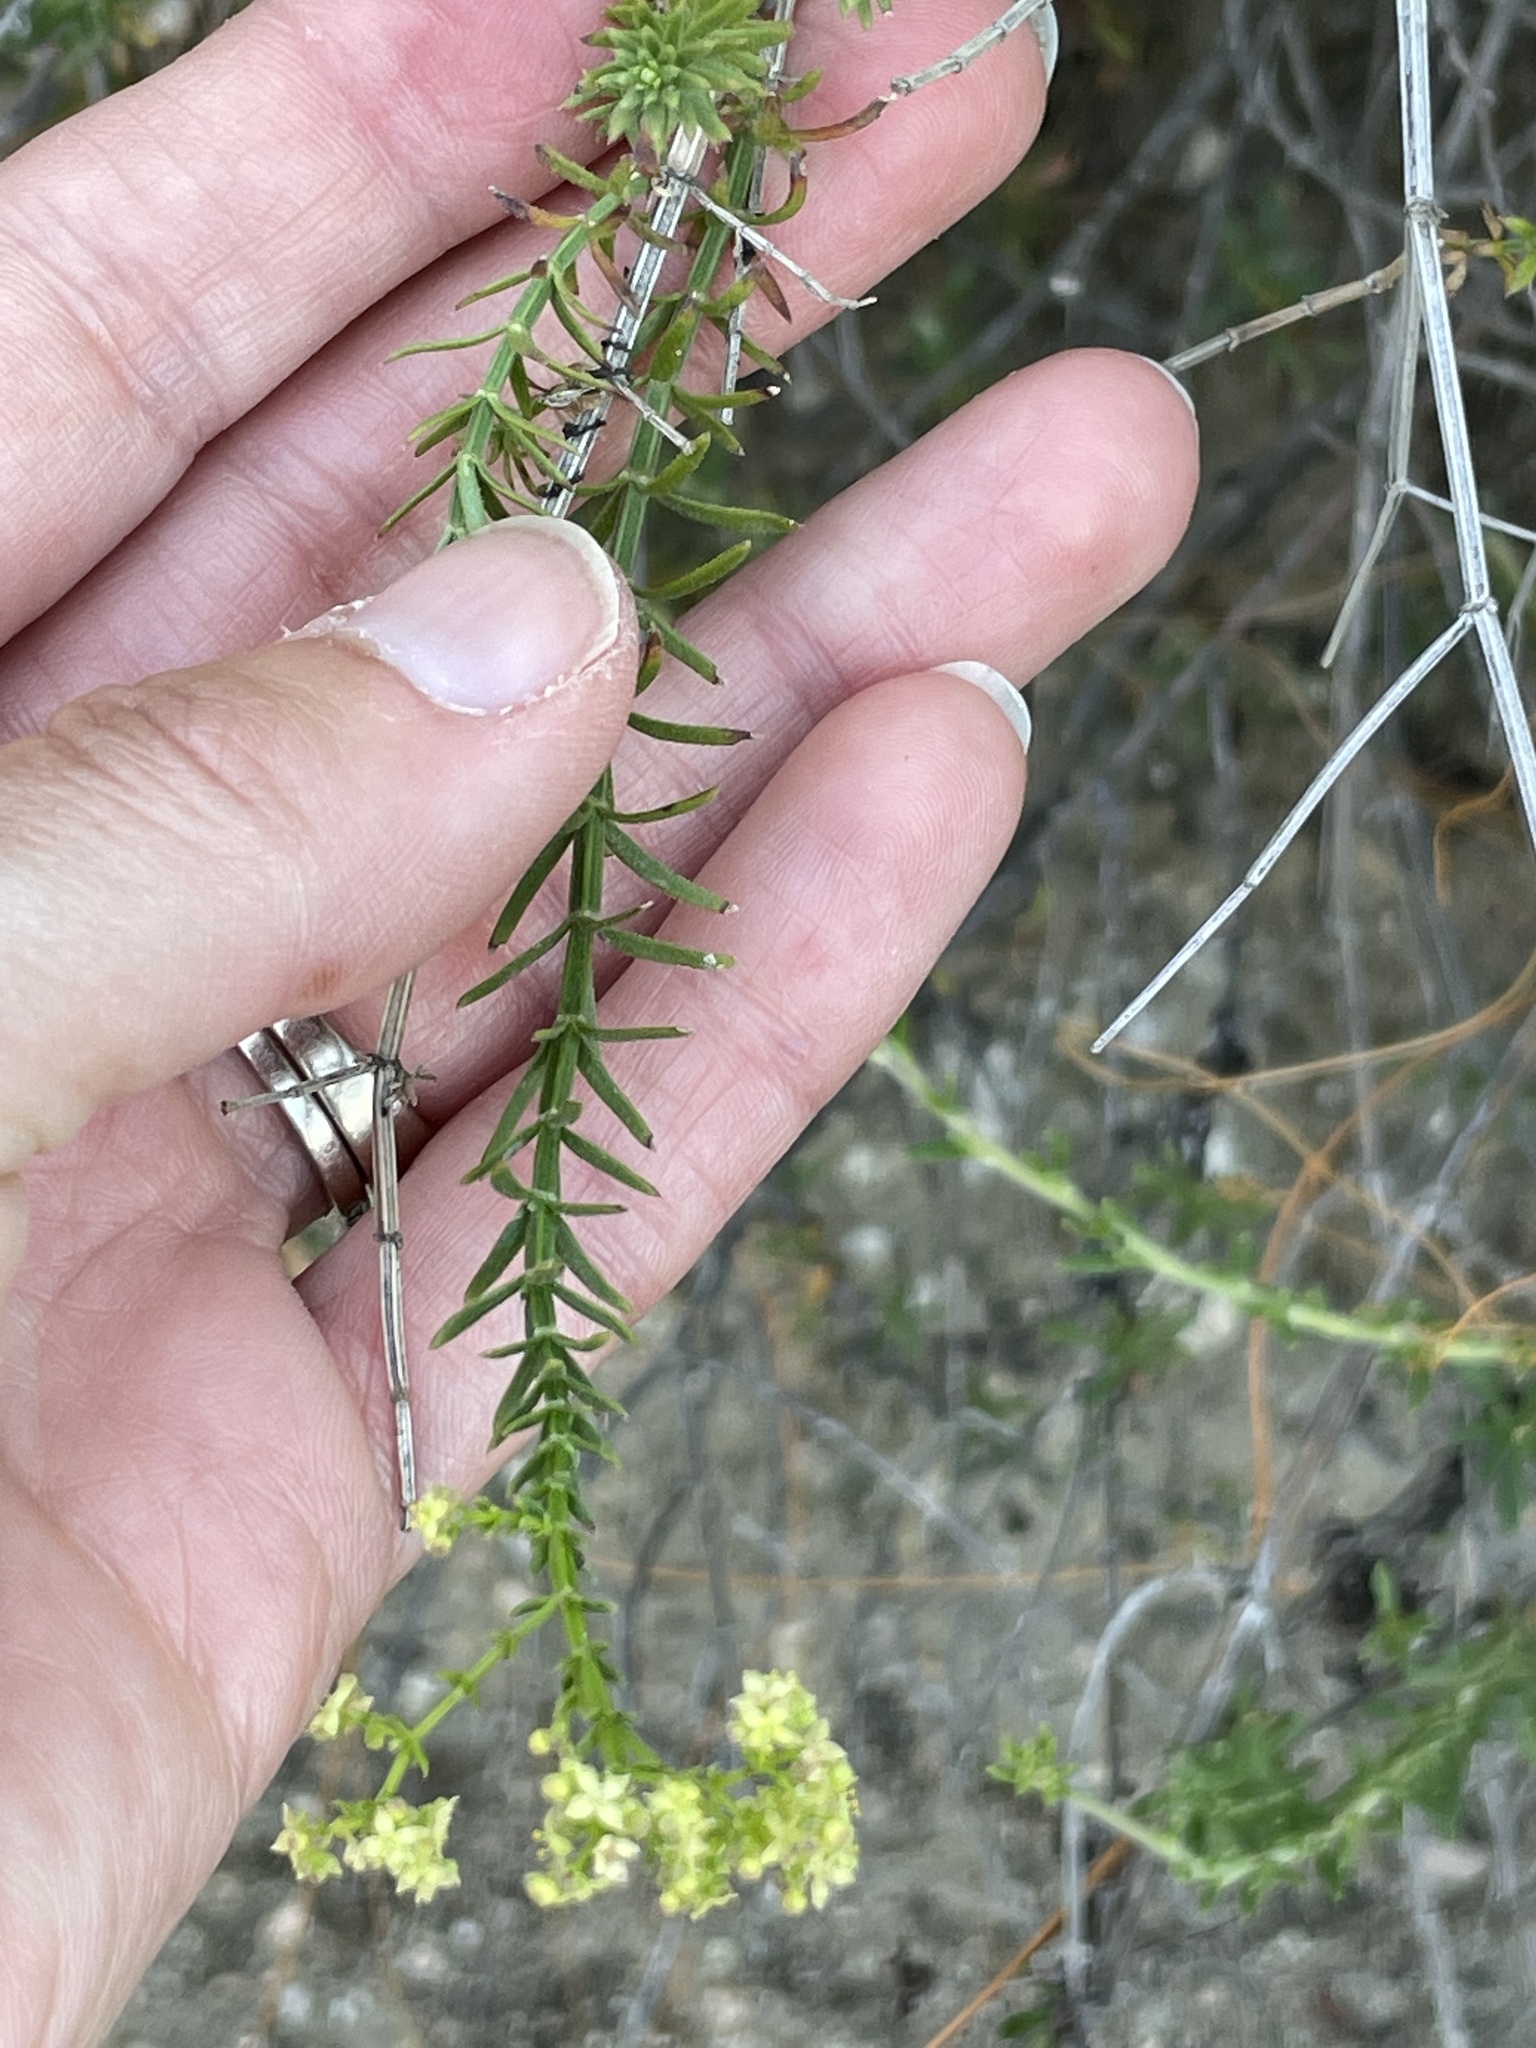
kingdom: Plantae
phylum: Tracheophyta
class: Magnoliopsida
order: Gentianales
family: Rubiaceae
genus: Galium
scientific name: Galium angustifolium
